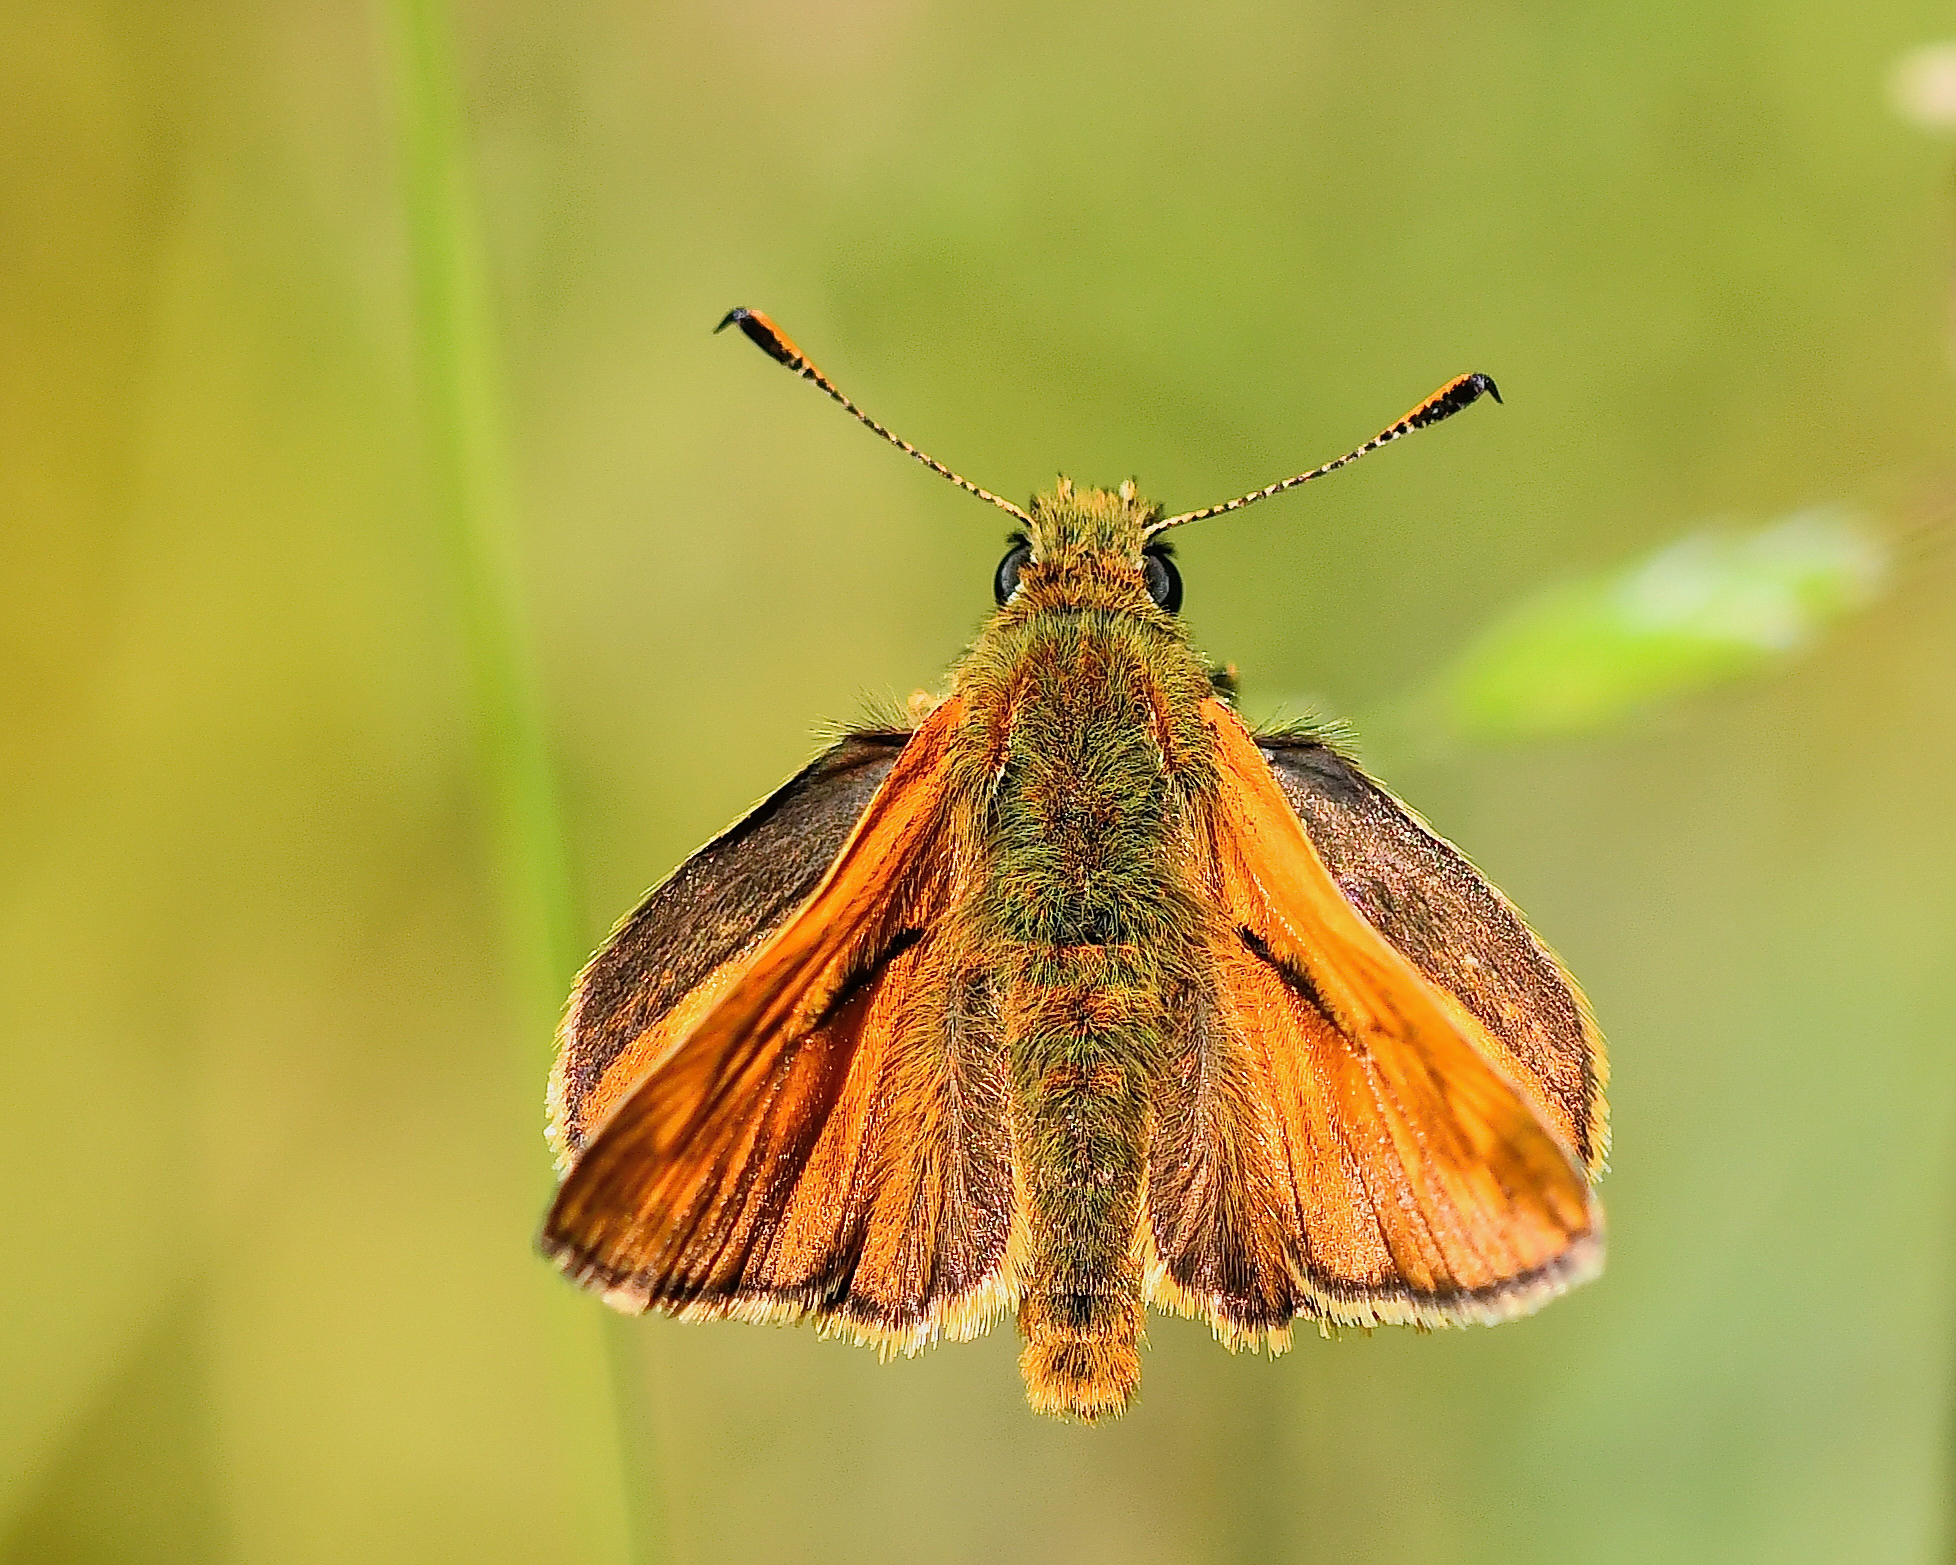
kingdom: Animalia
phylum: Arthropoda
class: Insecta
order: Lepidoptera
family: Hesperiidae
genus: Ochlodes
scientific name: Ochlodes venata
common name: Large skipper
